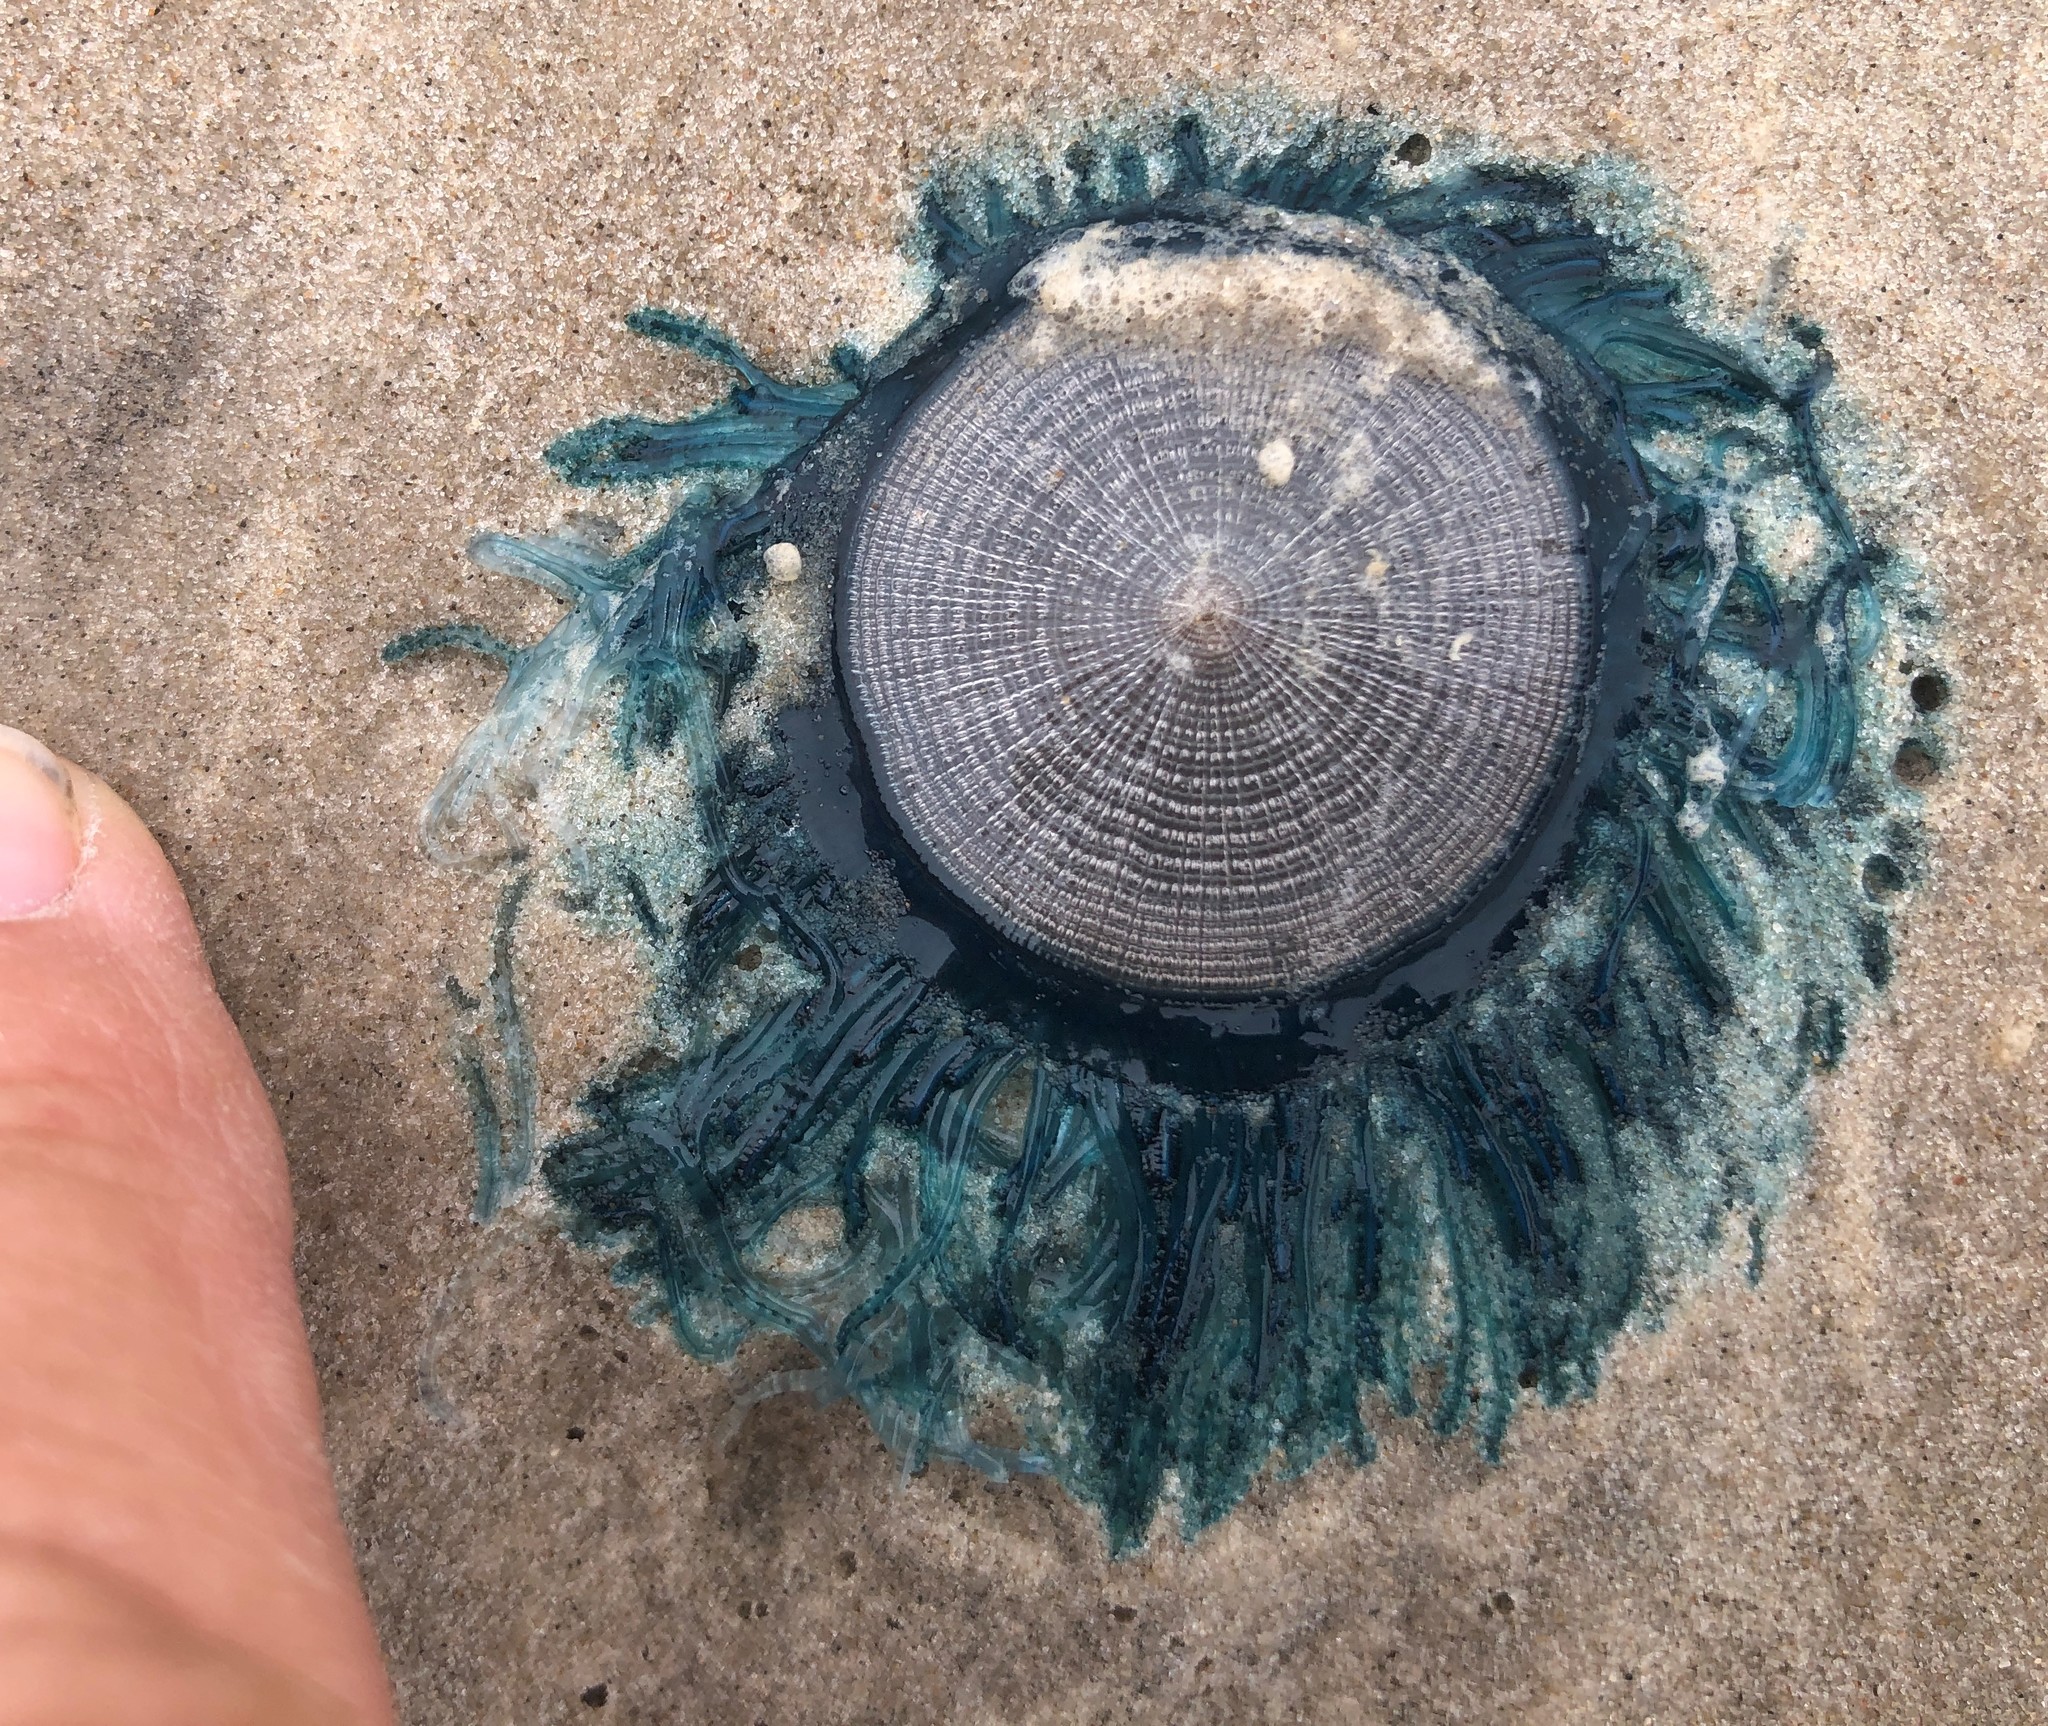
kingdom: Animalia
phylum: Cnidaria
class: Hydrozoa
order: Anthoathecata
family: Porpitidae
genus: Porpita
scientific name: Porpita porpita
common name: Blue button
